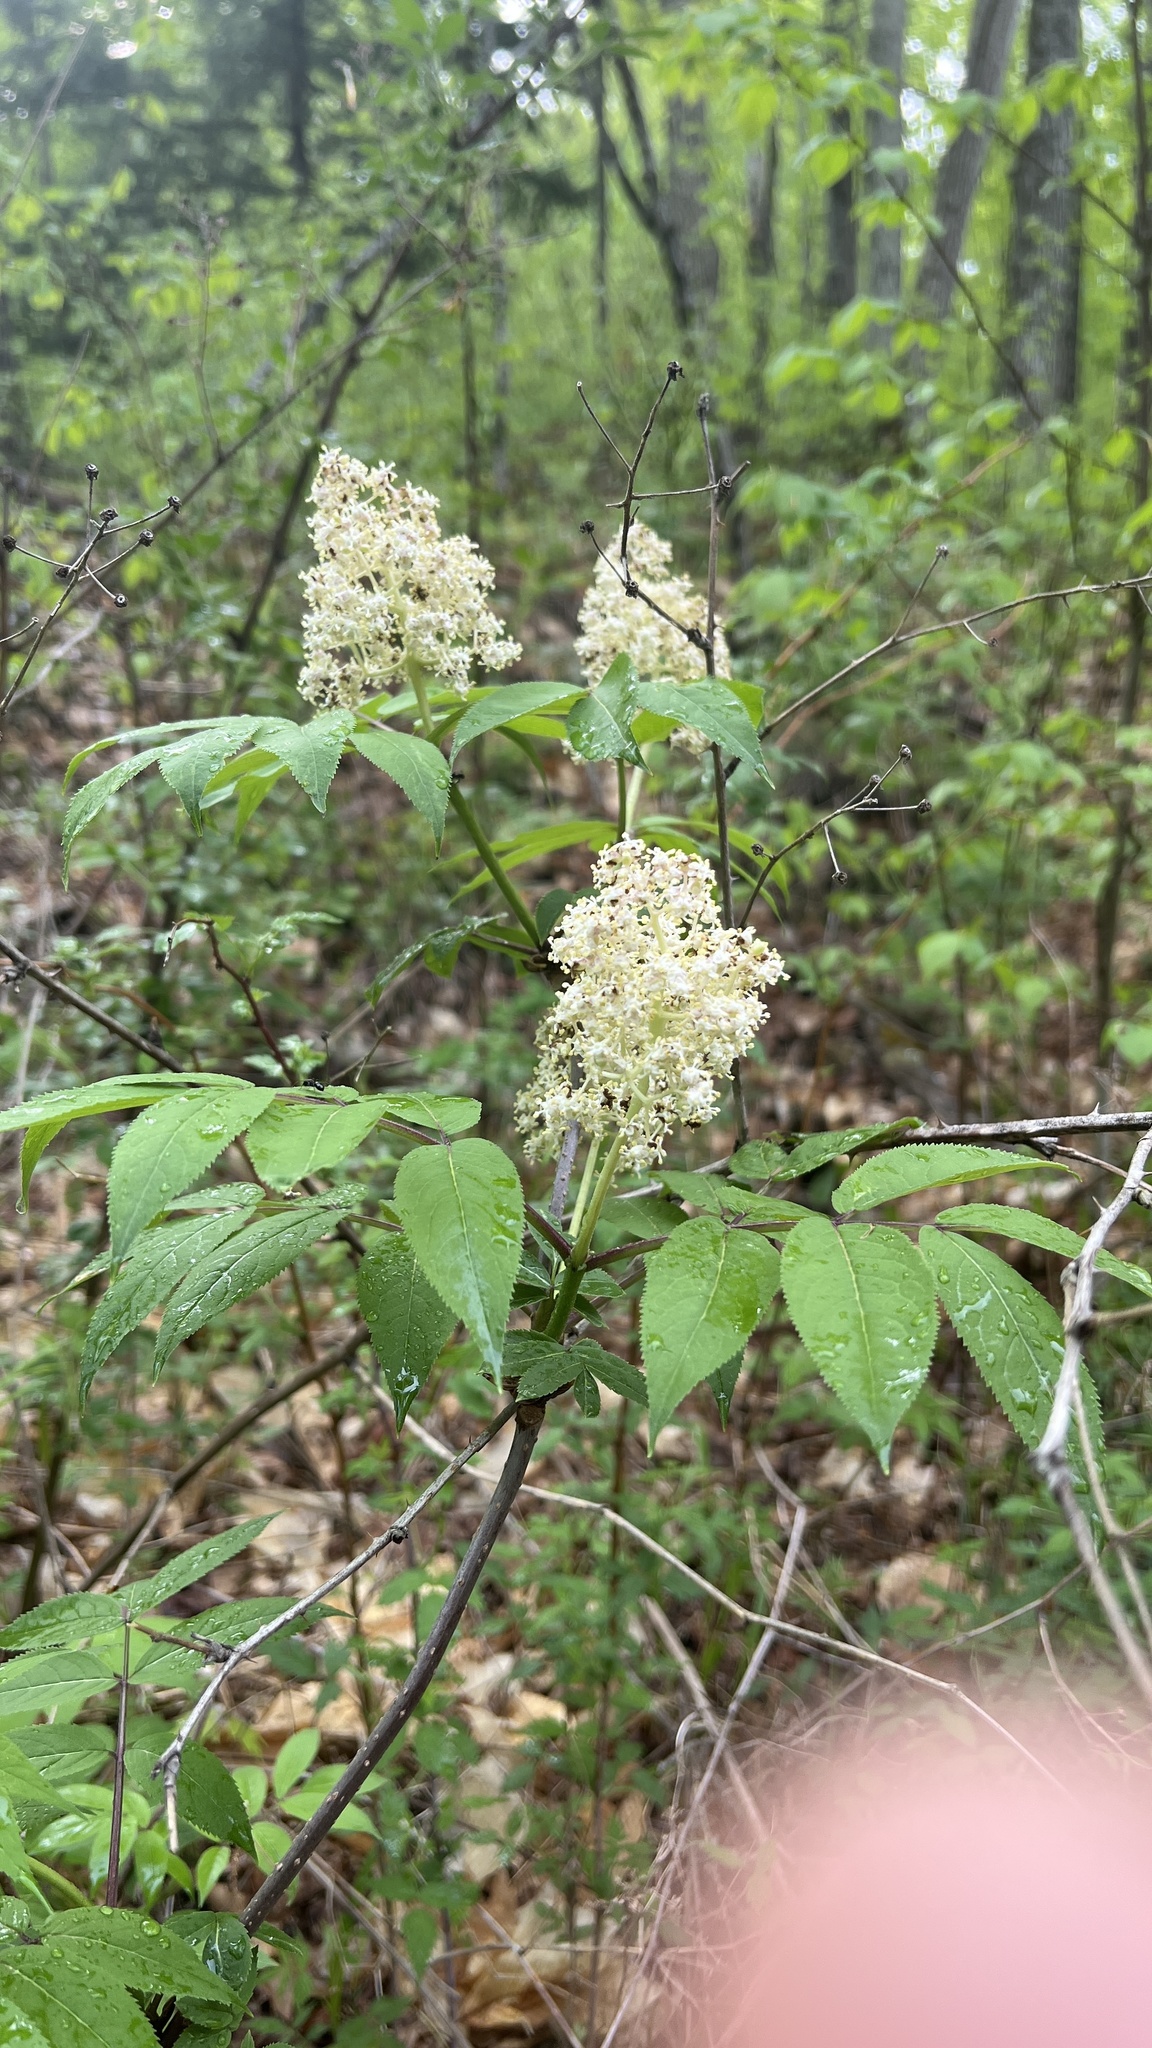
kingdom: Plantae
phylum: Tracheophyta
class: Magnoliopsida
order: Dipsacales
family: Viburnaceae
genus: Sambucus
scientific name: Sambucus racemosa
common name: Red-berried elder
